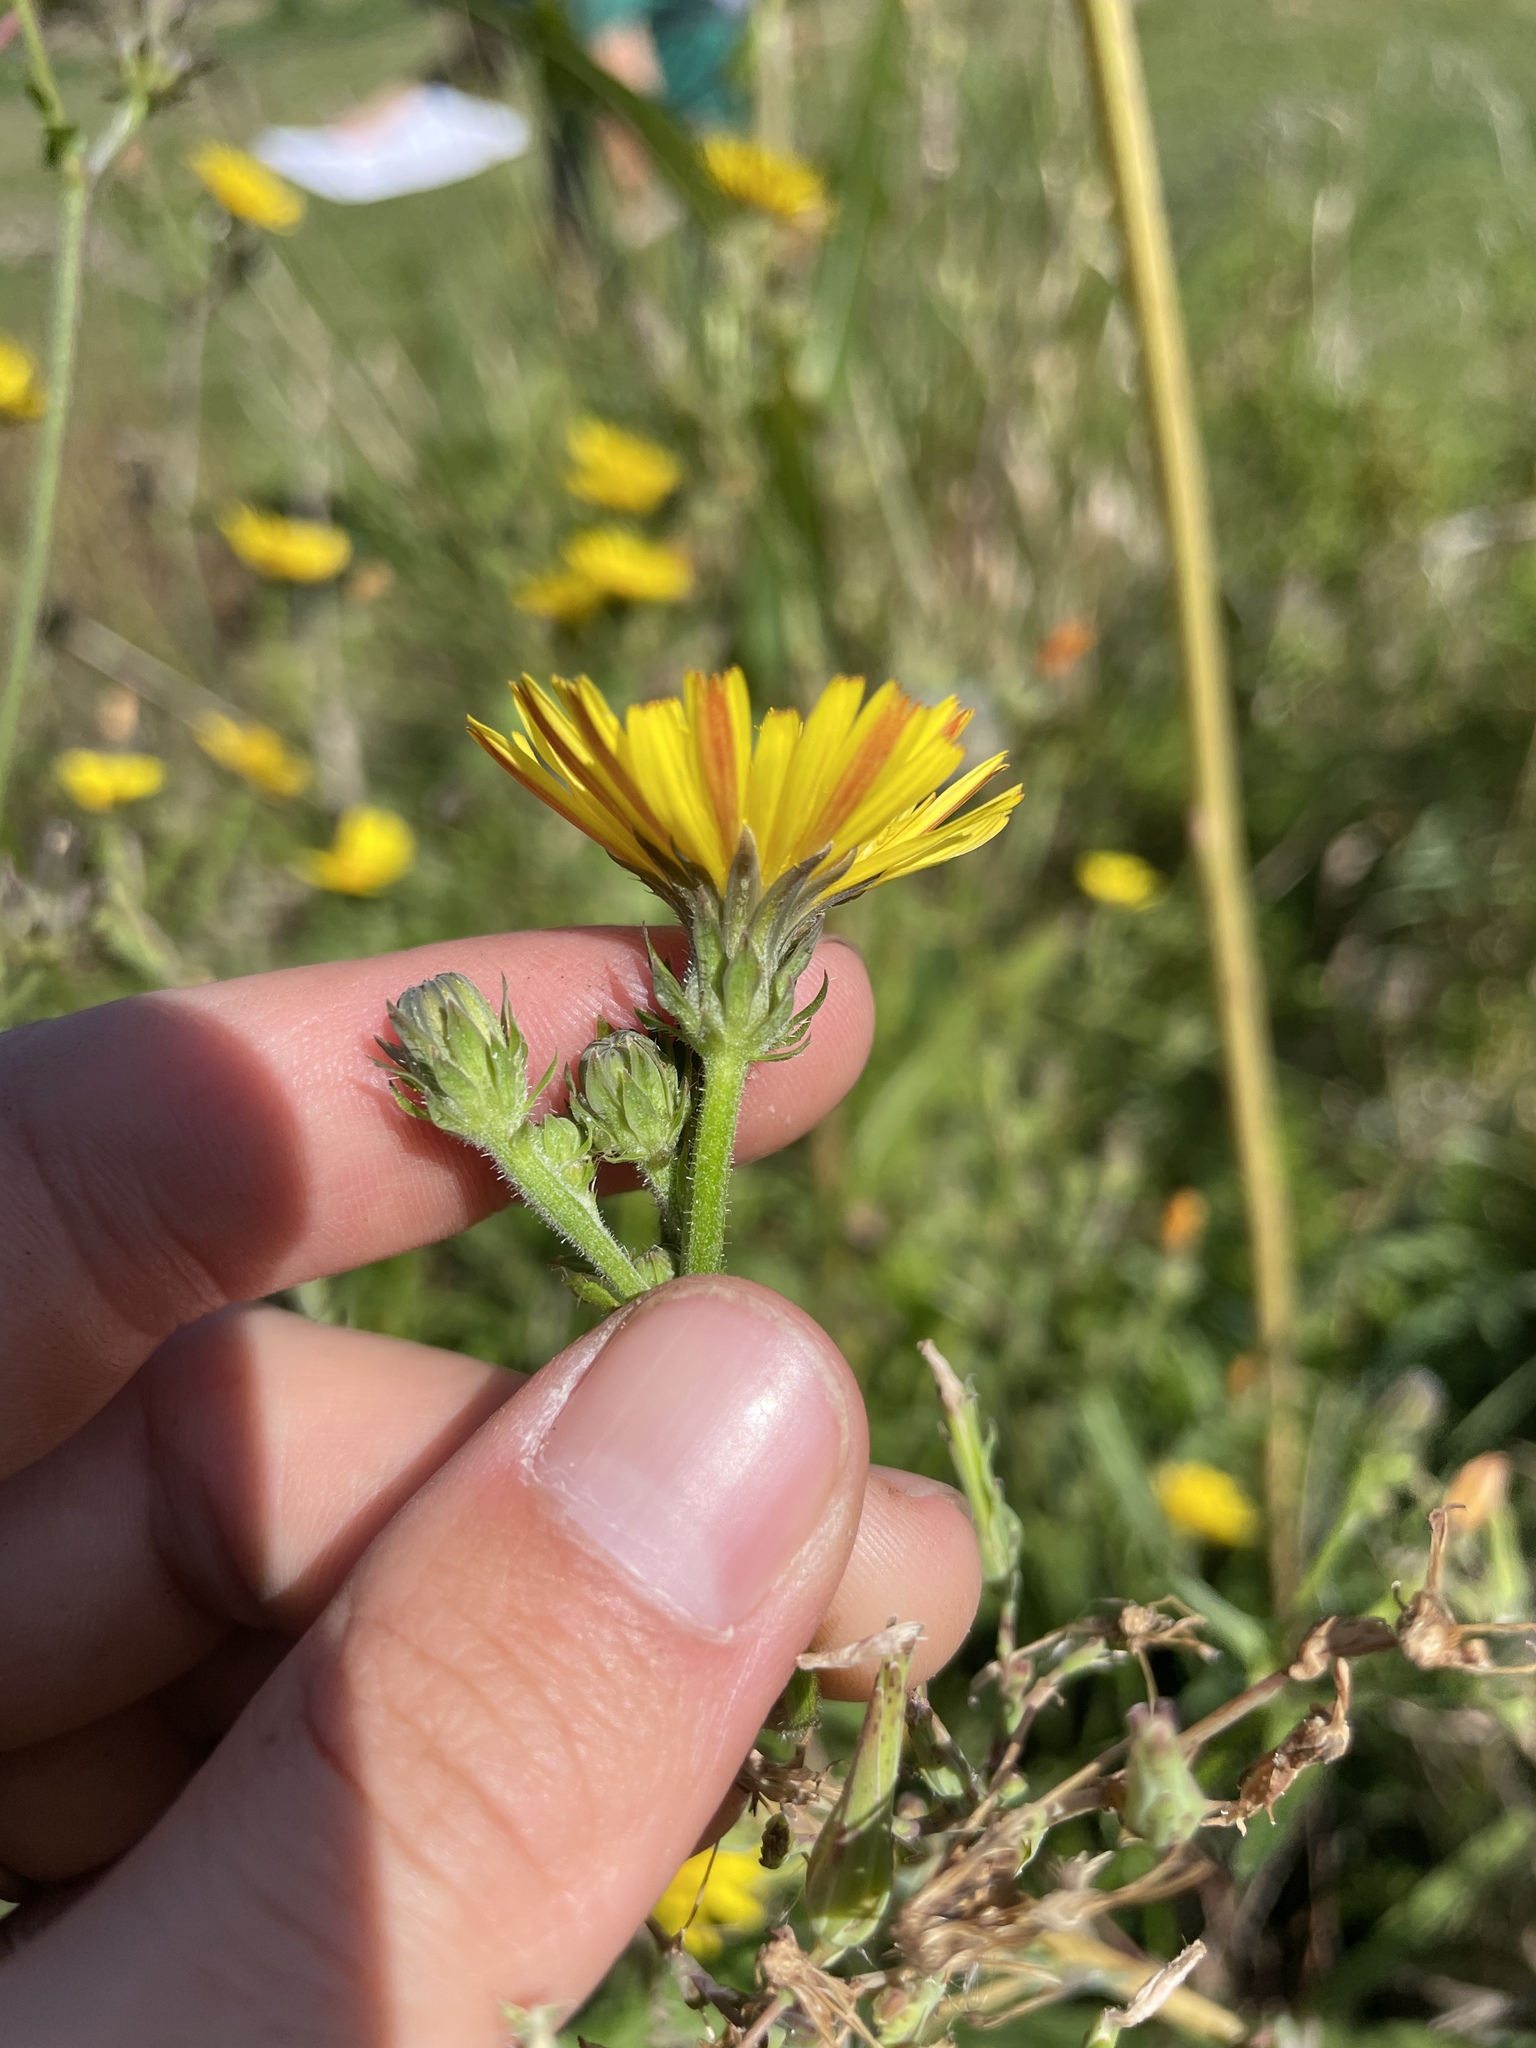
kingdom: Plantae
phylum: Tracheophyta
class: Magnoliopsida
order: Asterales
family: Asteraceae
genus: Picris
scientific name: Picris hieracioides
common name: Hawkweed oxtongue
